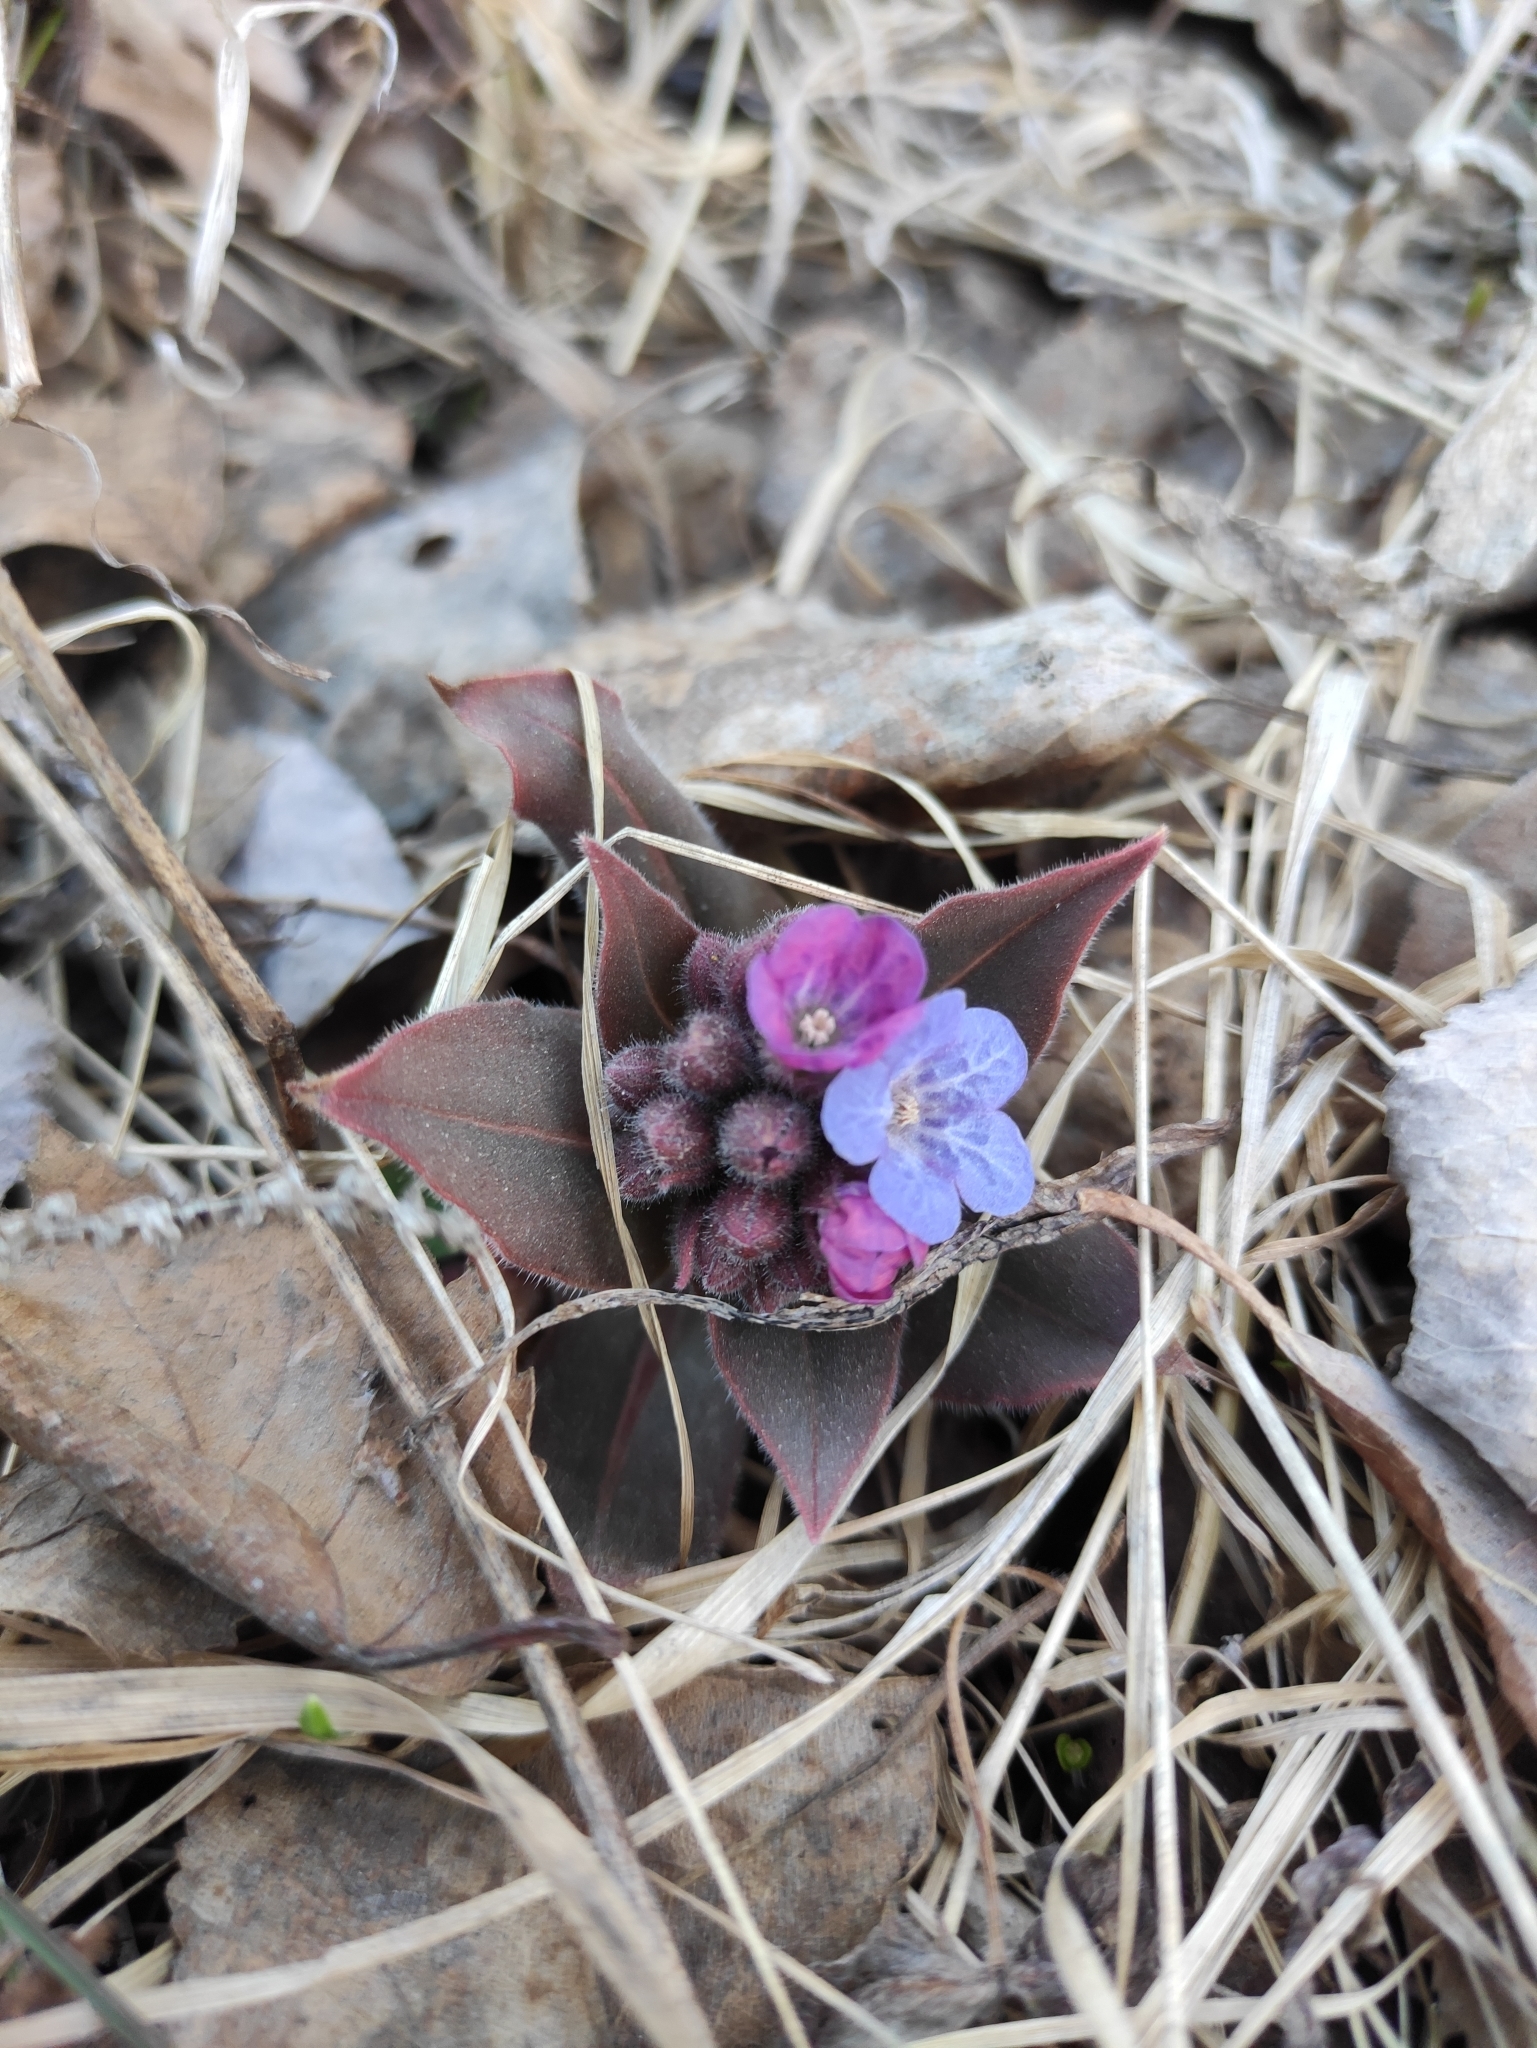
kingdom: Plantae
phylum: Tracheophyta
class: Magnoliopsida
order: Boraginales
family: Boraginaceae
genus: Pulmonaria
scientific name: Pulmonaria mollis
